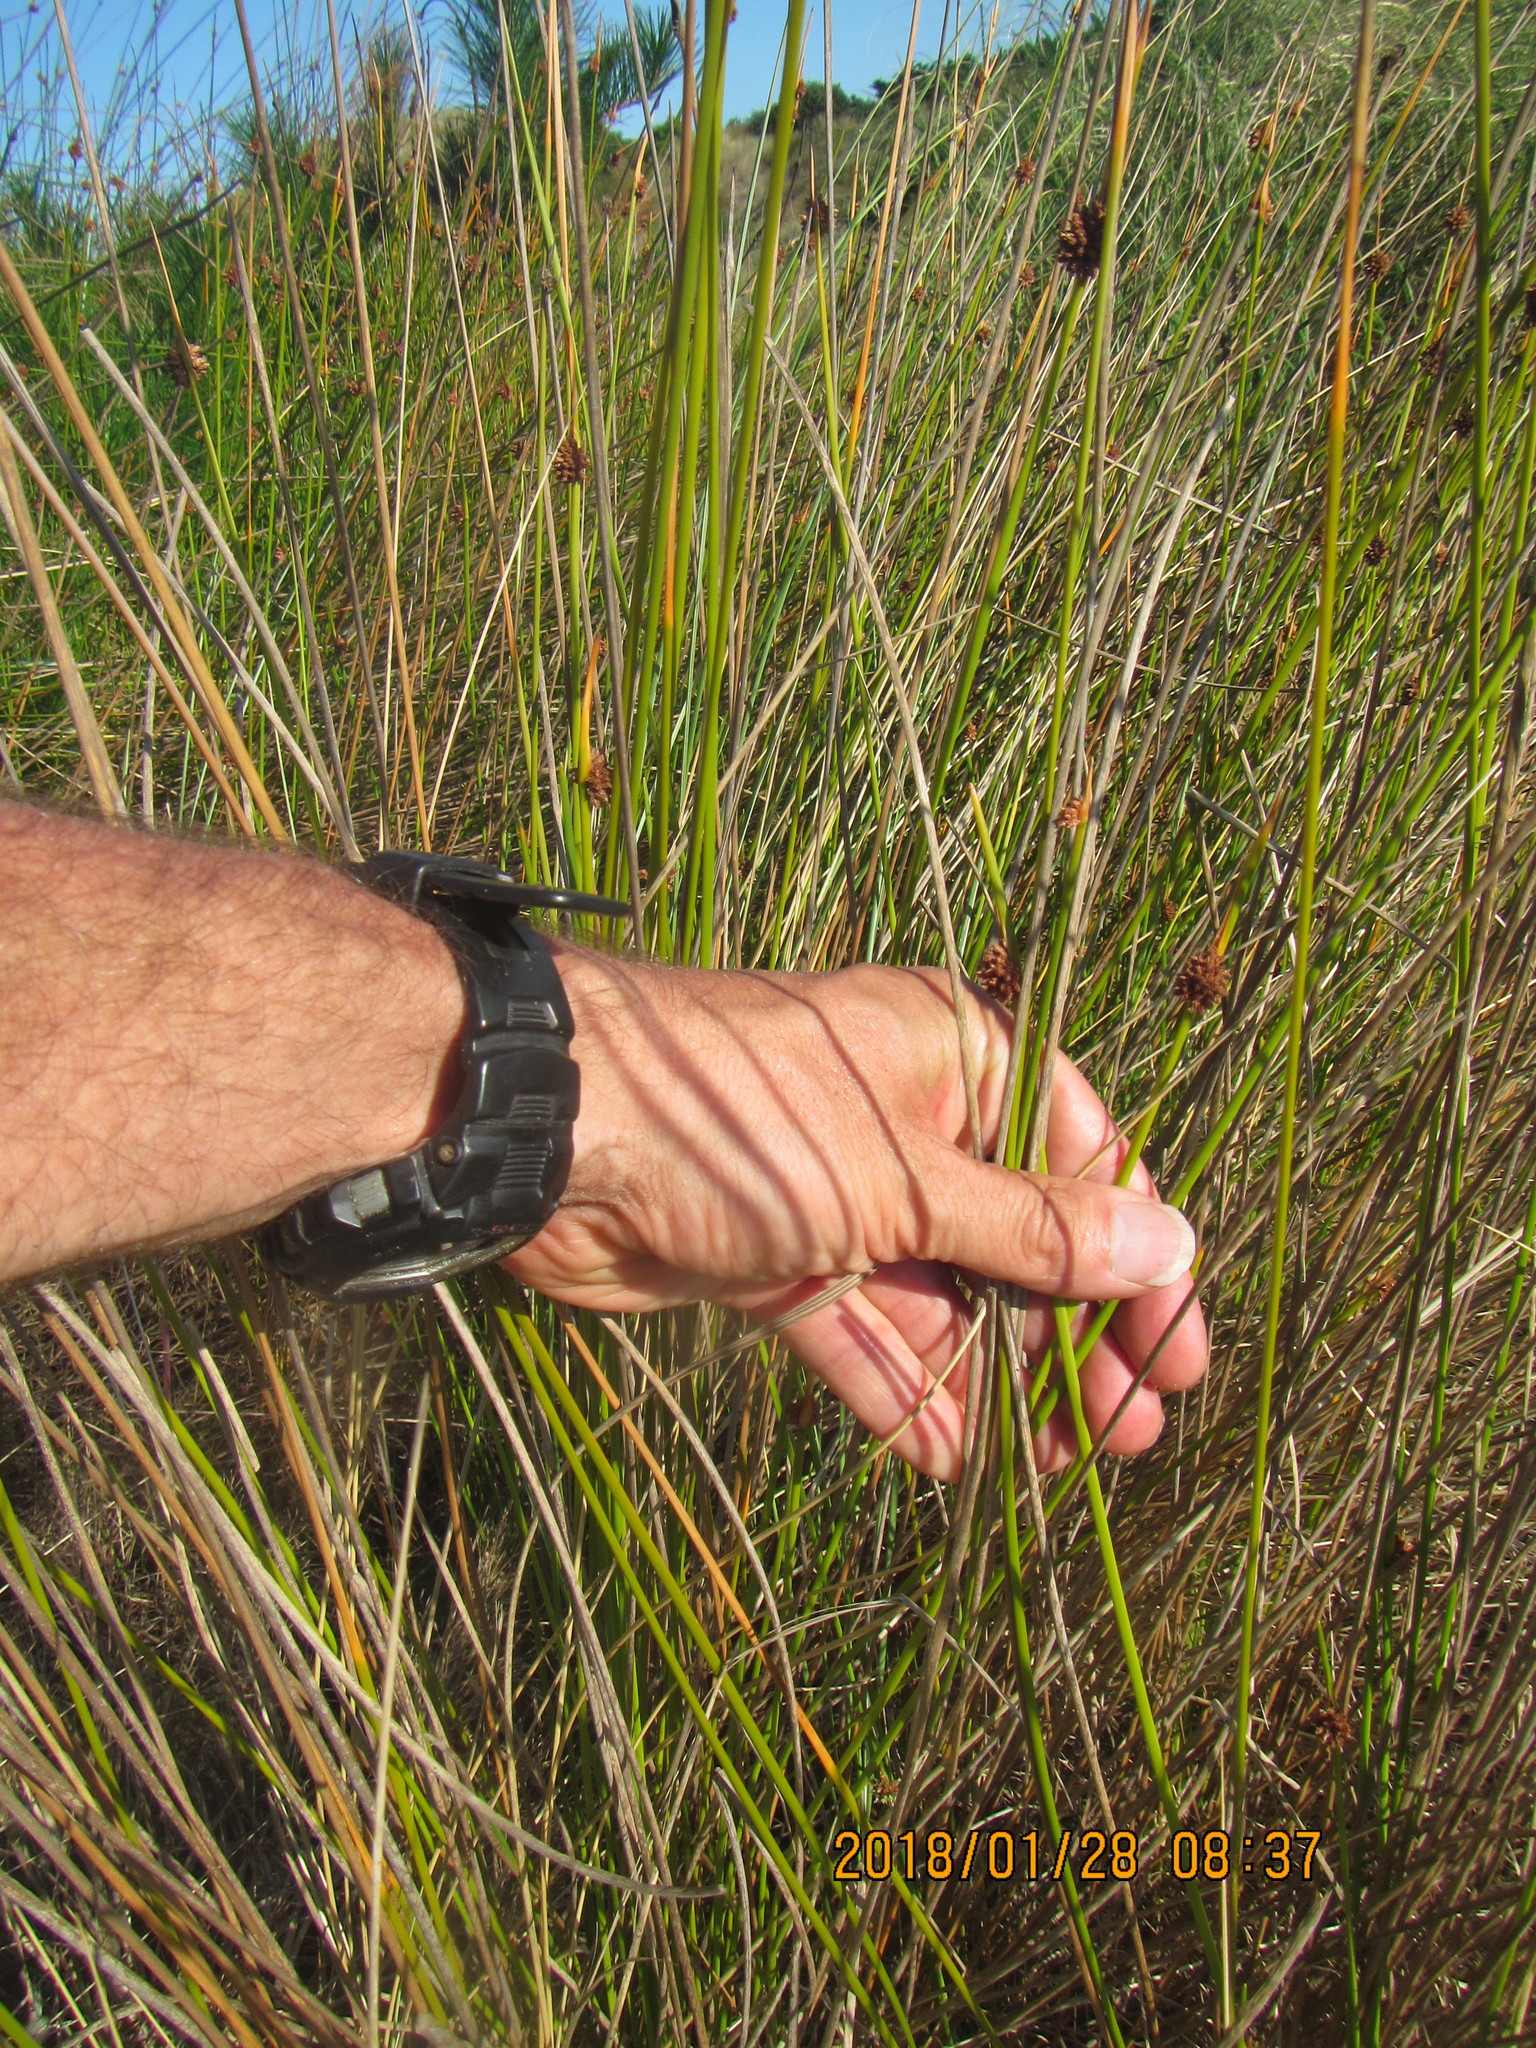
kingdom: Plantae
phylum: Tracheophyta
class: Liliopsida
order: Poales
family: Cyperaceae
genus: Ficinia
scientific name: Ficinia nodosa
